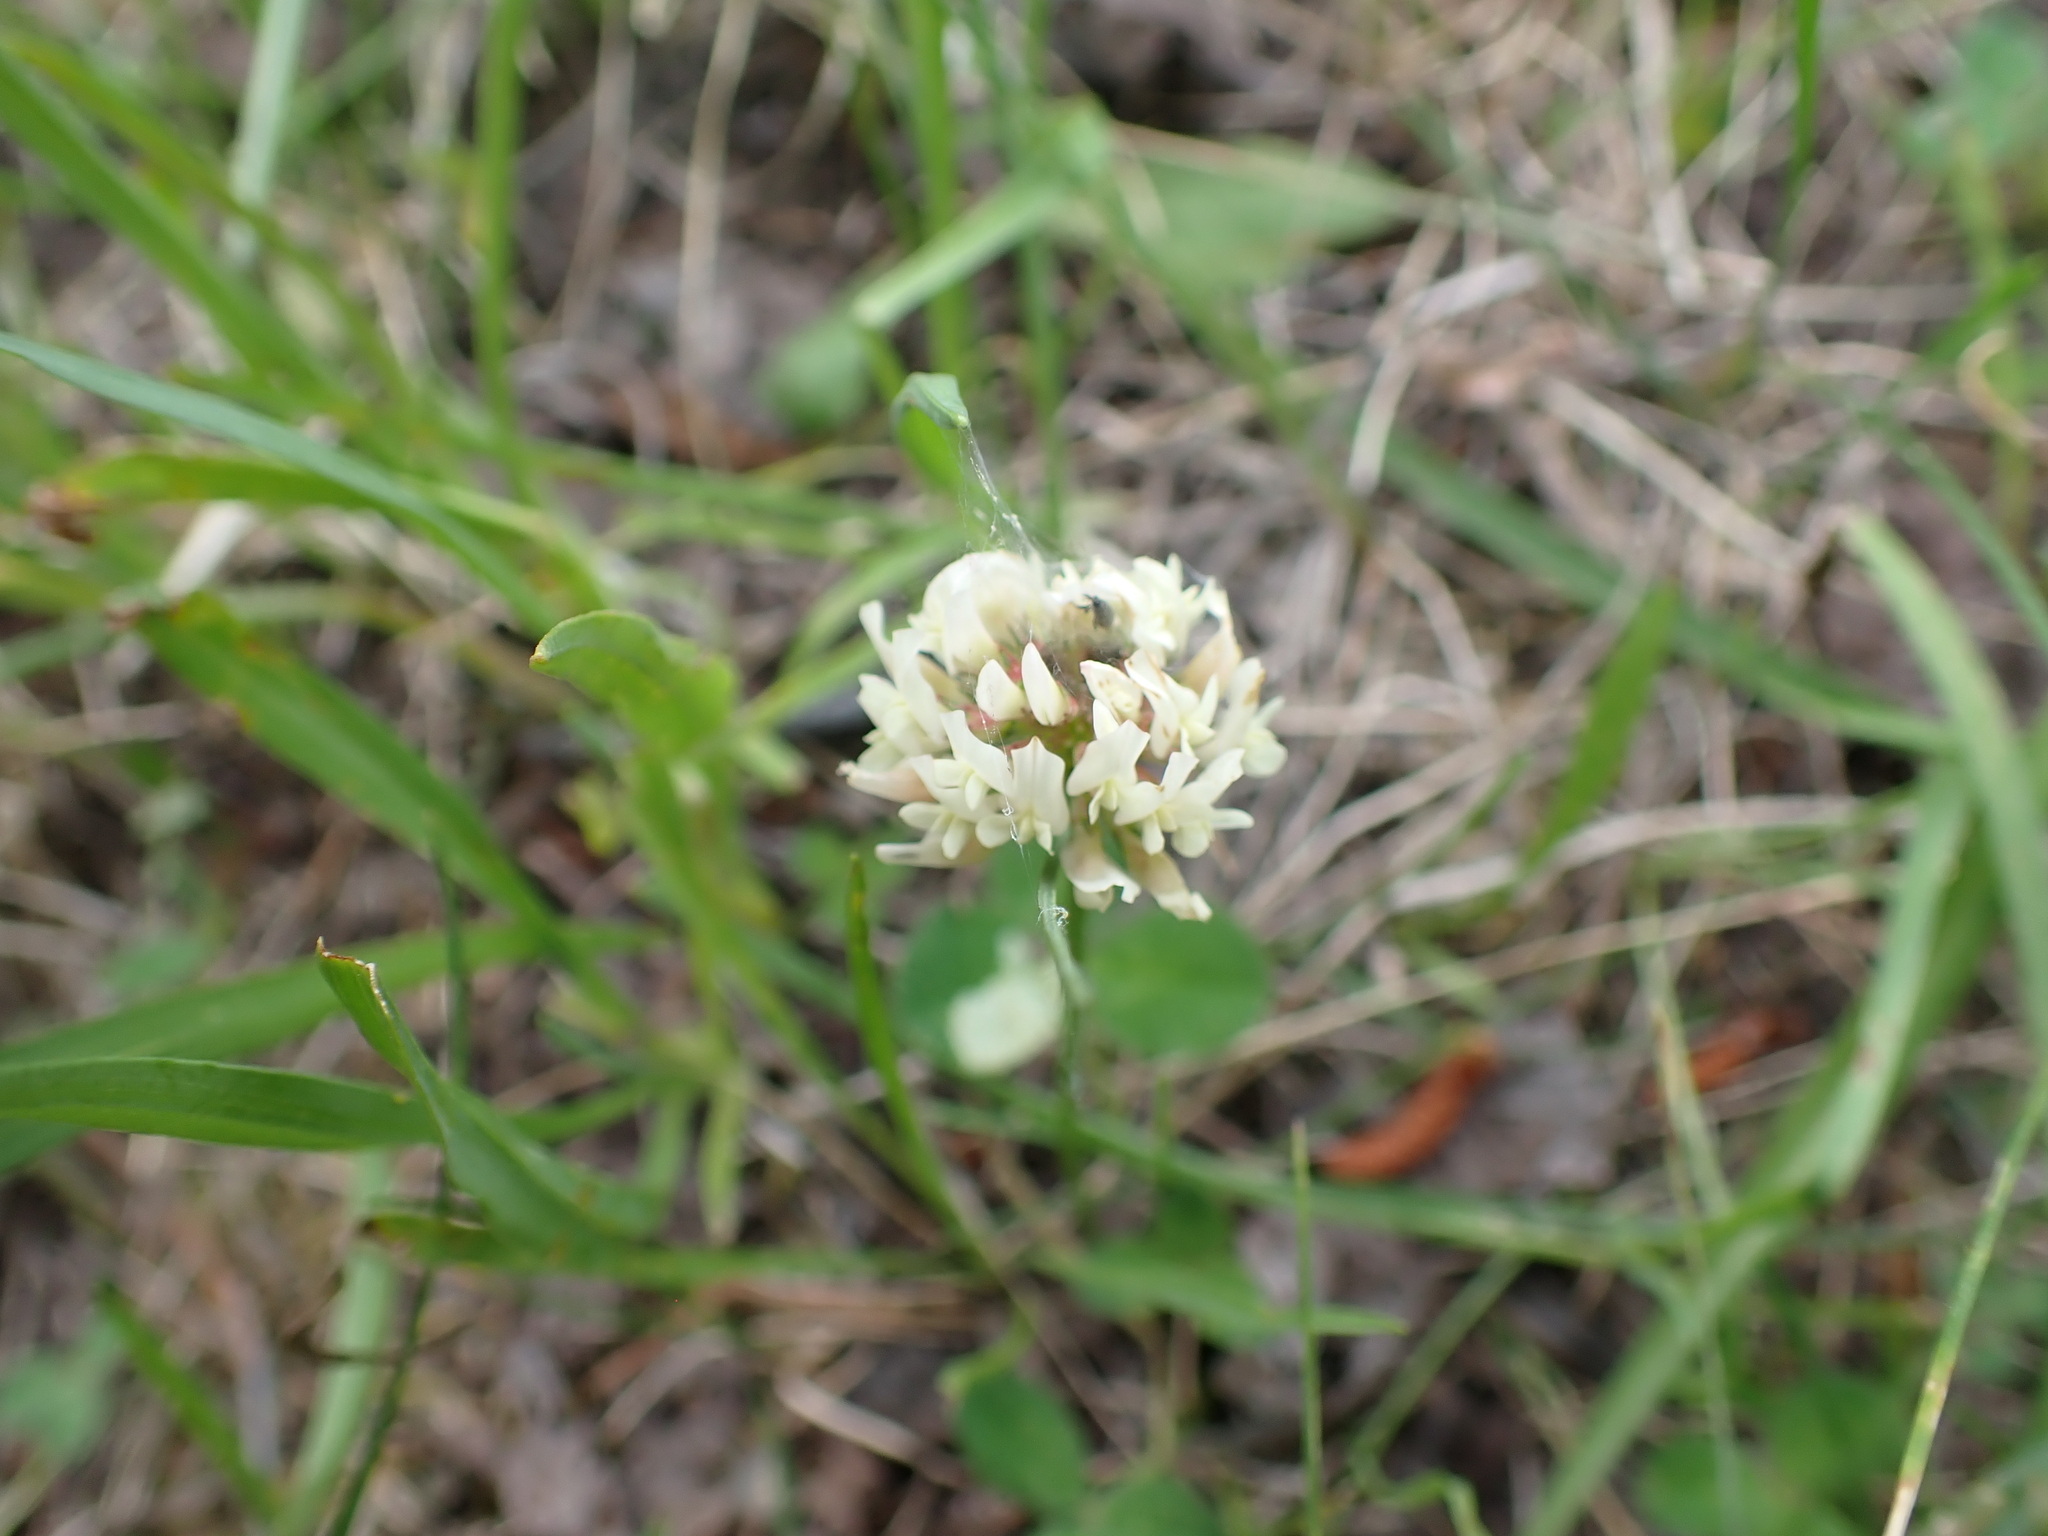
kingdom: Plantae
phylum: Tracheophyta
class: Magnoliopsida
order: Fabales
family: Fabaceae
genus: Trifolium
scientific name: Trifolium repens
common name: White clover
